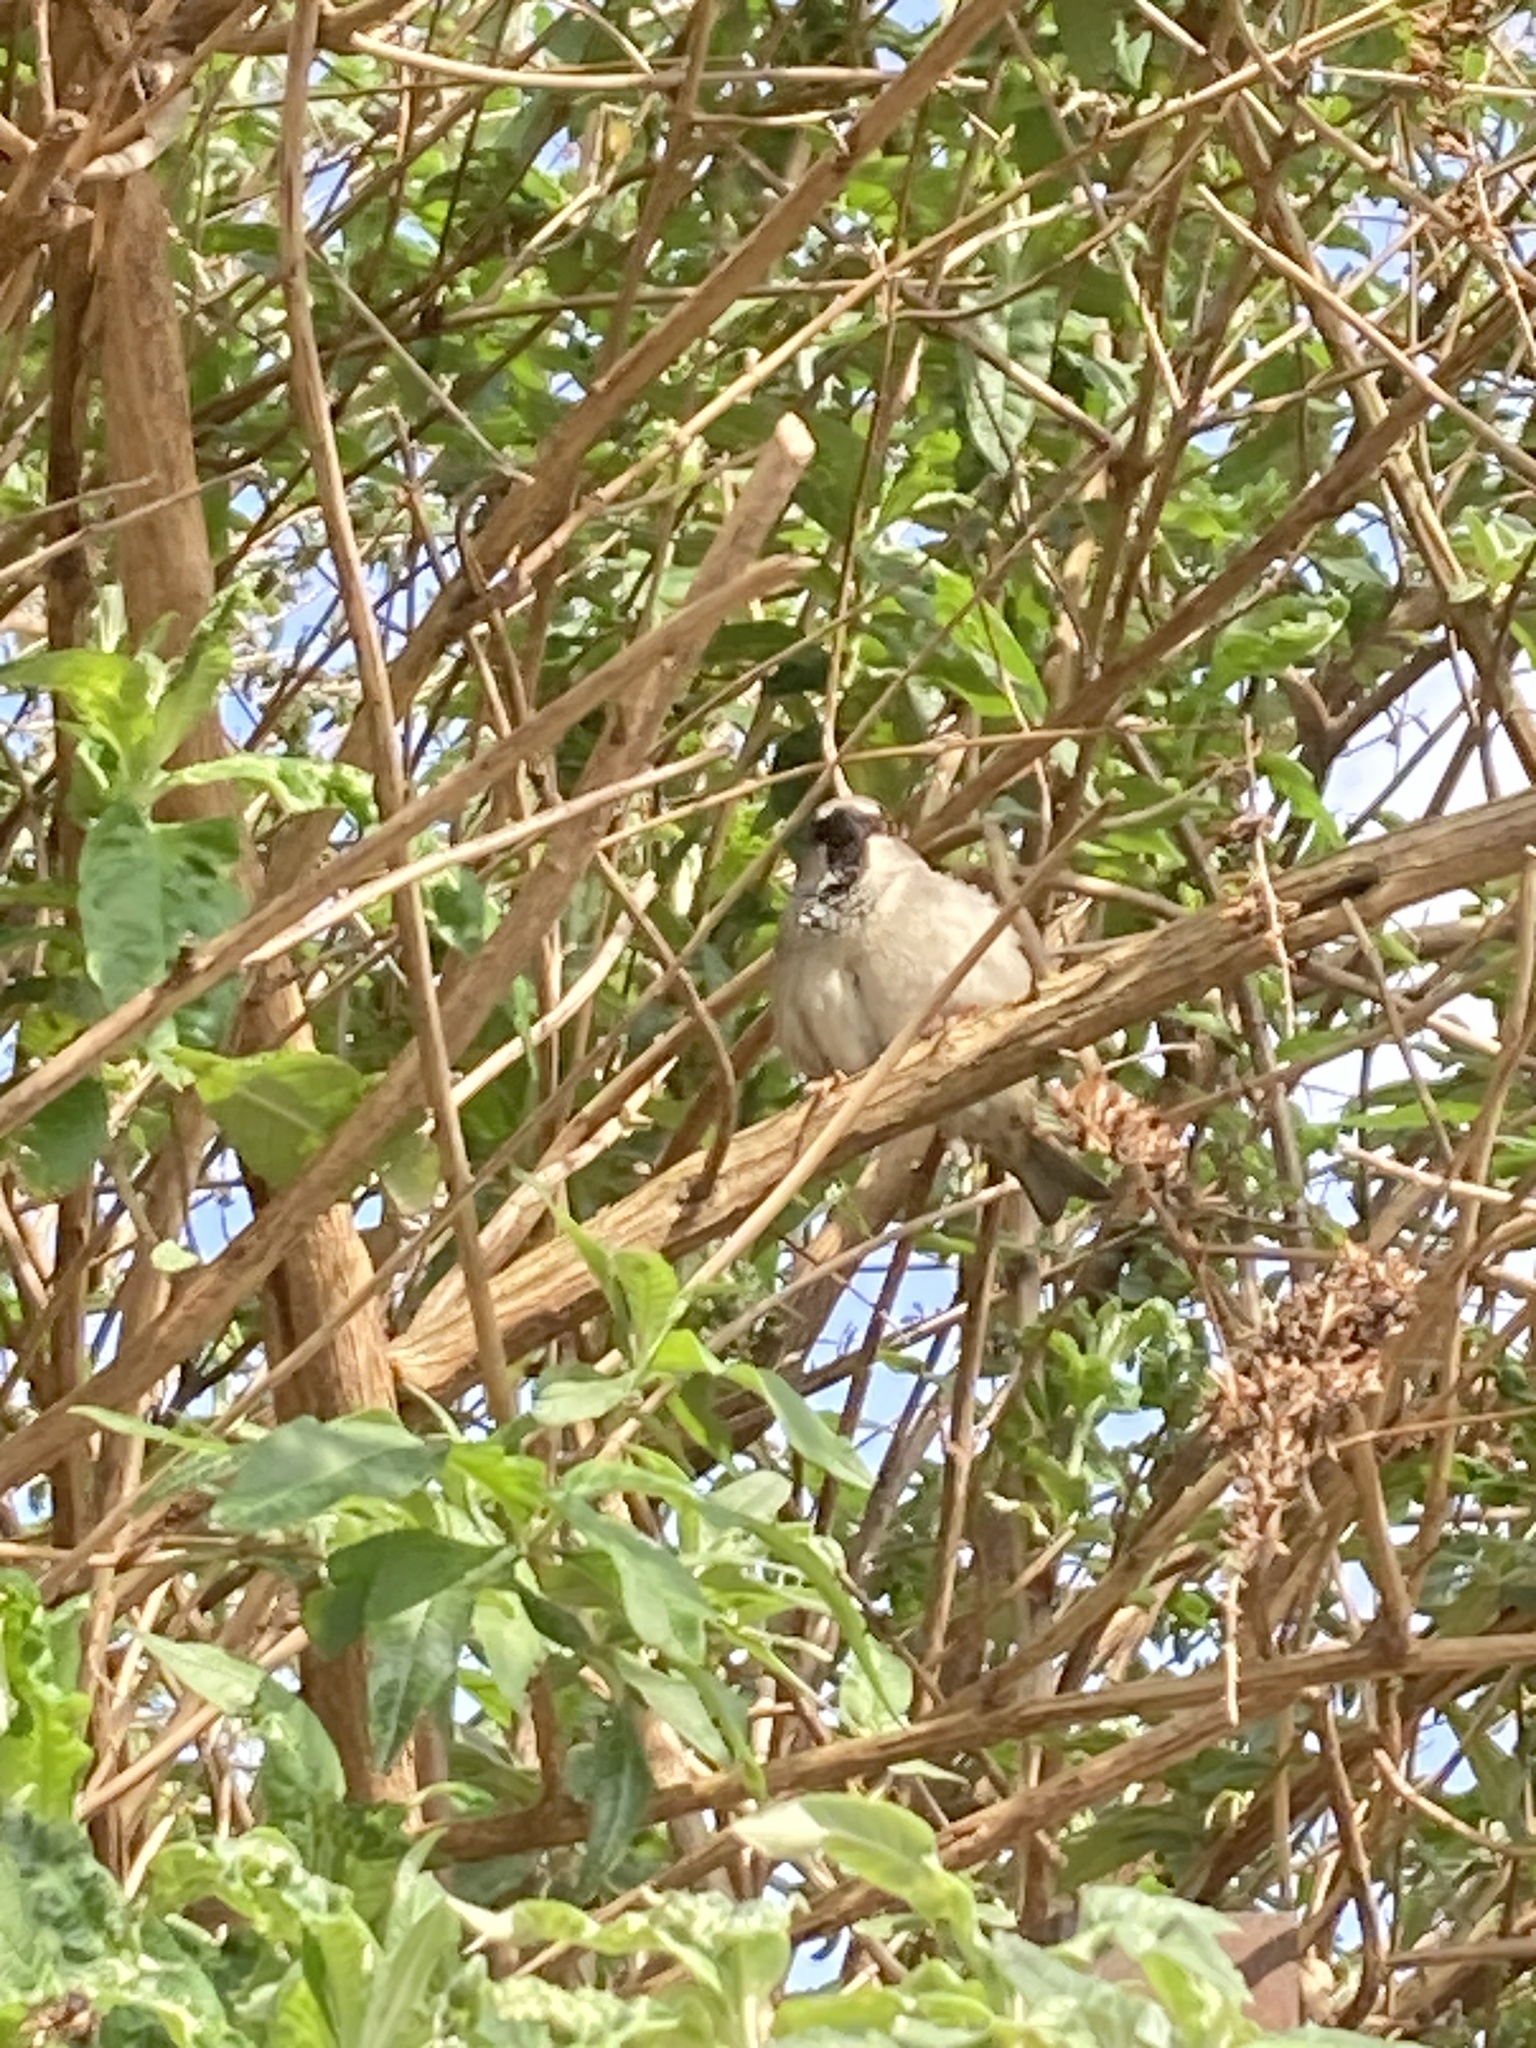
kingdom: Animalia
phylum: Chordata
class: Aves
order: Passeriformes
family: Passeridae
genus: Passer
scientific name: Passer domesticus
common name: House sparrow
